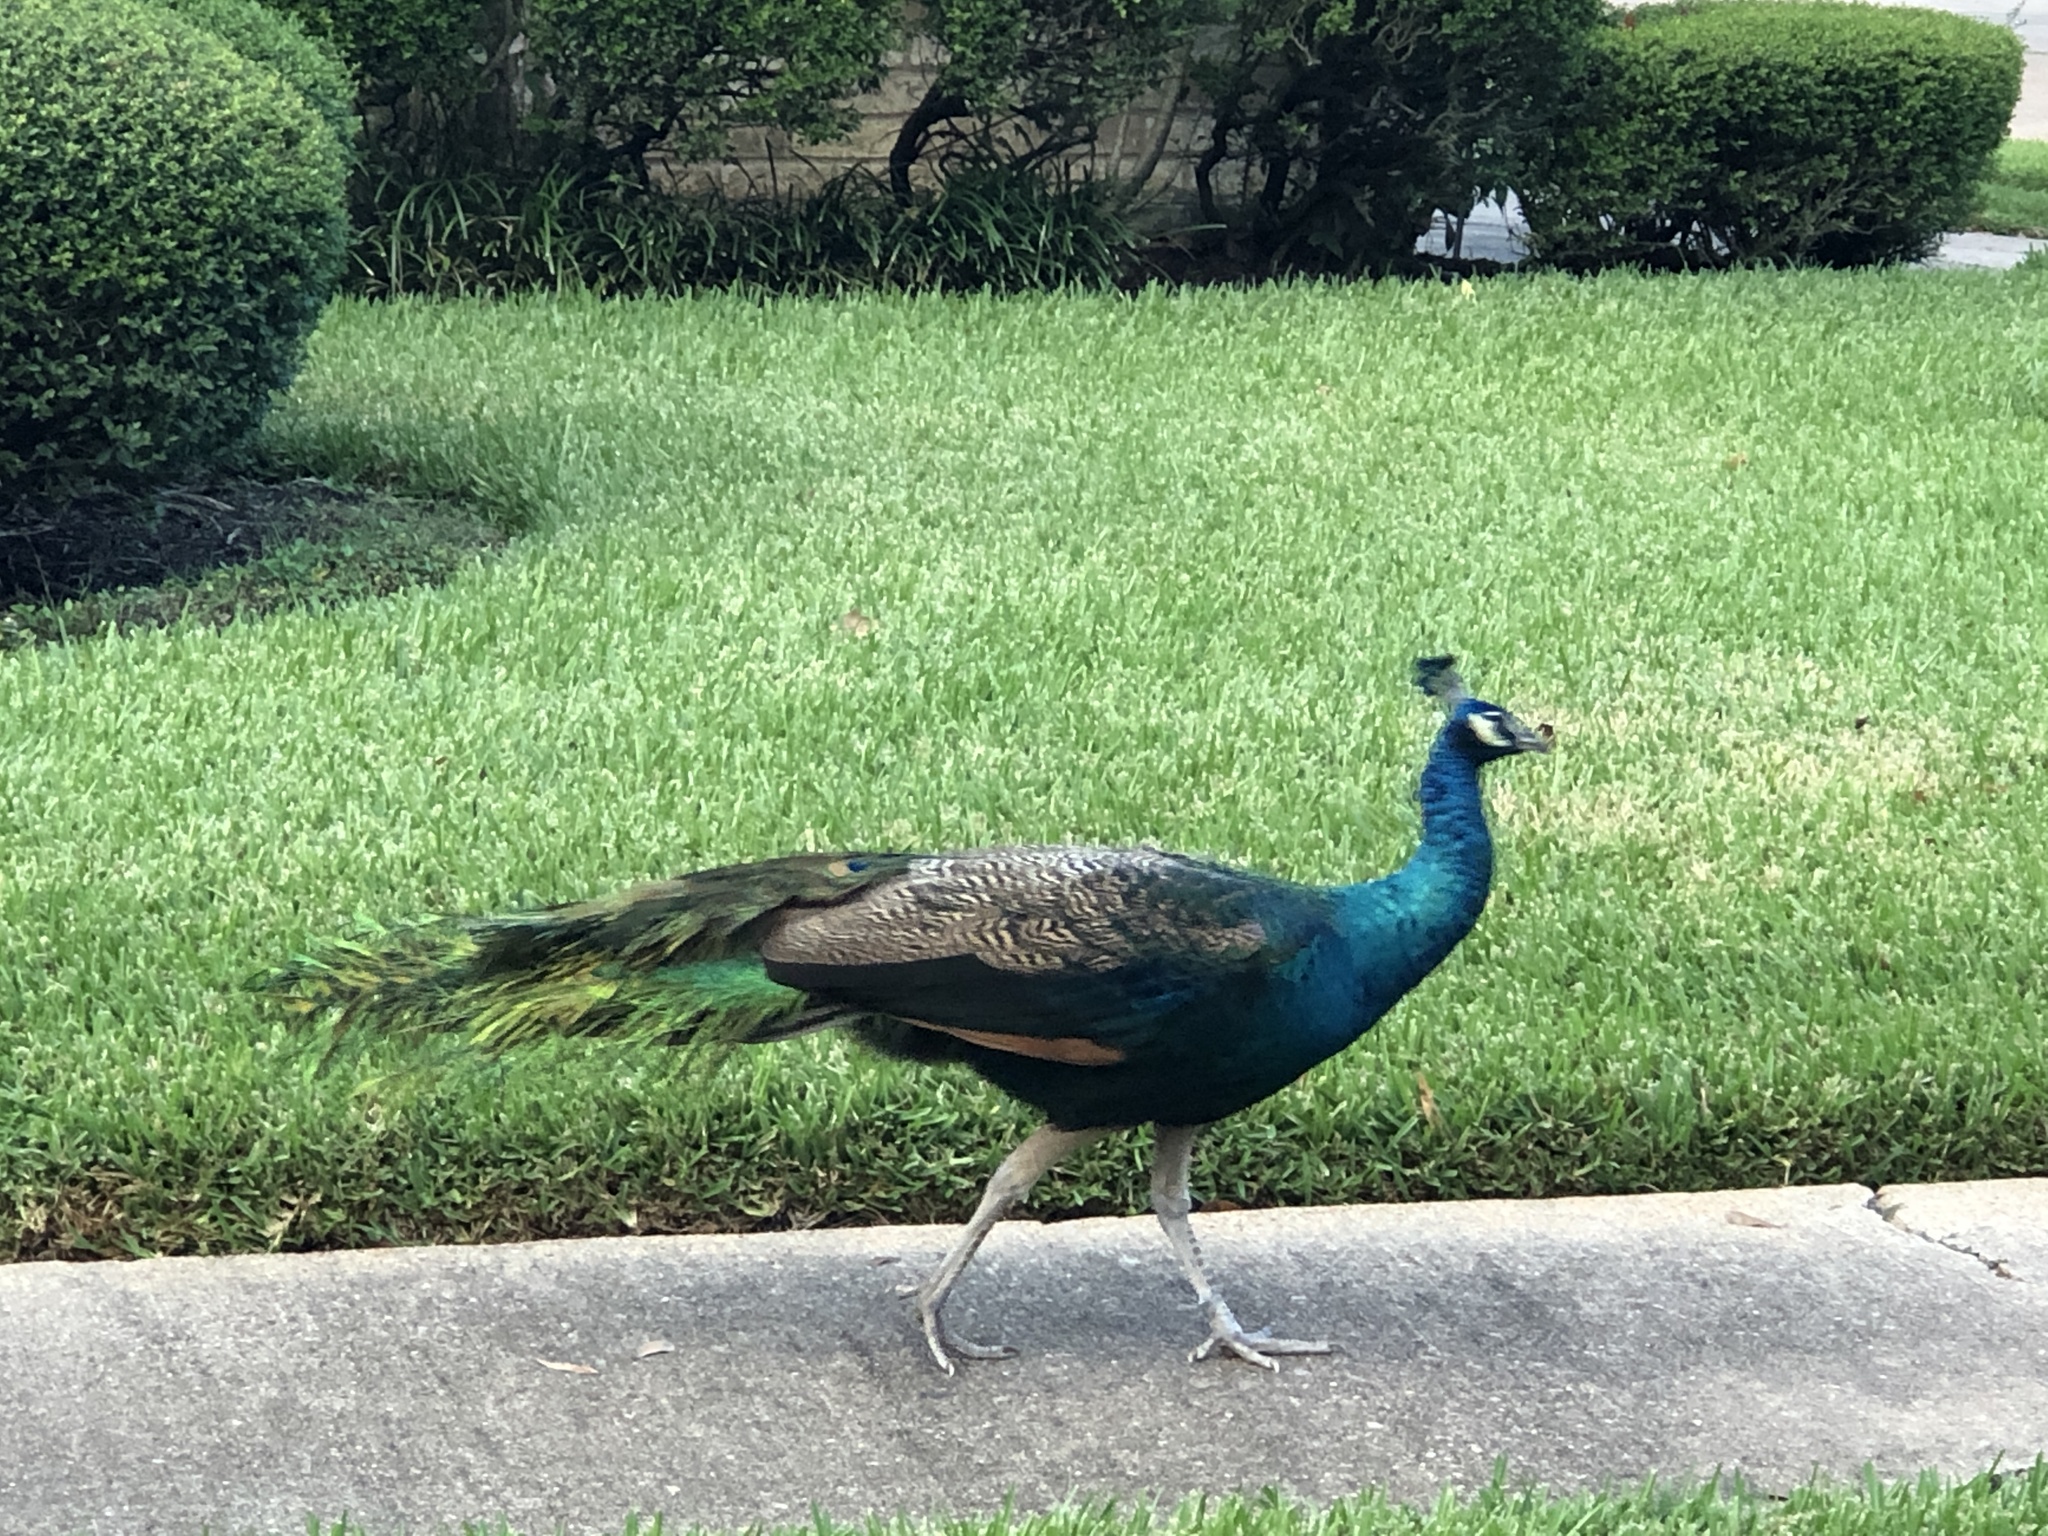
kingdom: Animalia
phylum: Chordata
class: Aves
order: Galliformes
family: Phasianidae
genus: Pavo
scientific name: Pavo cristatus
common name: Indian peafowl
